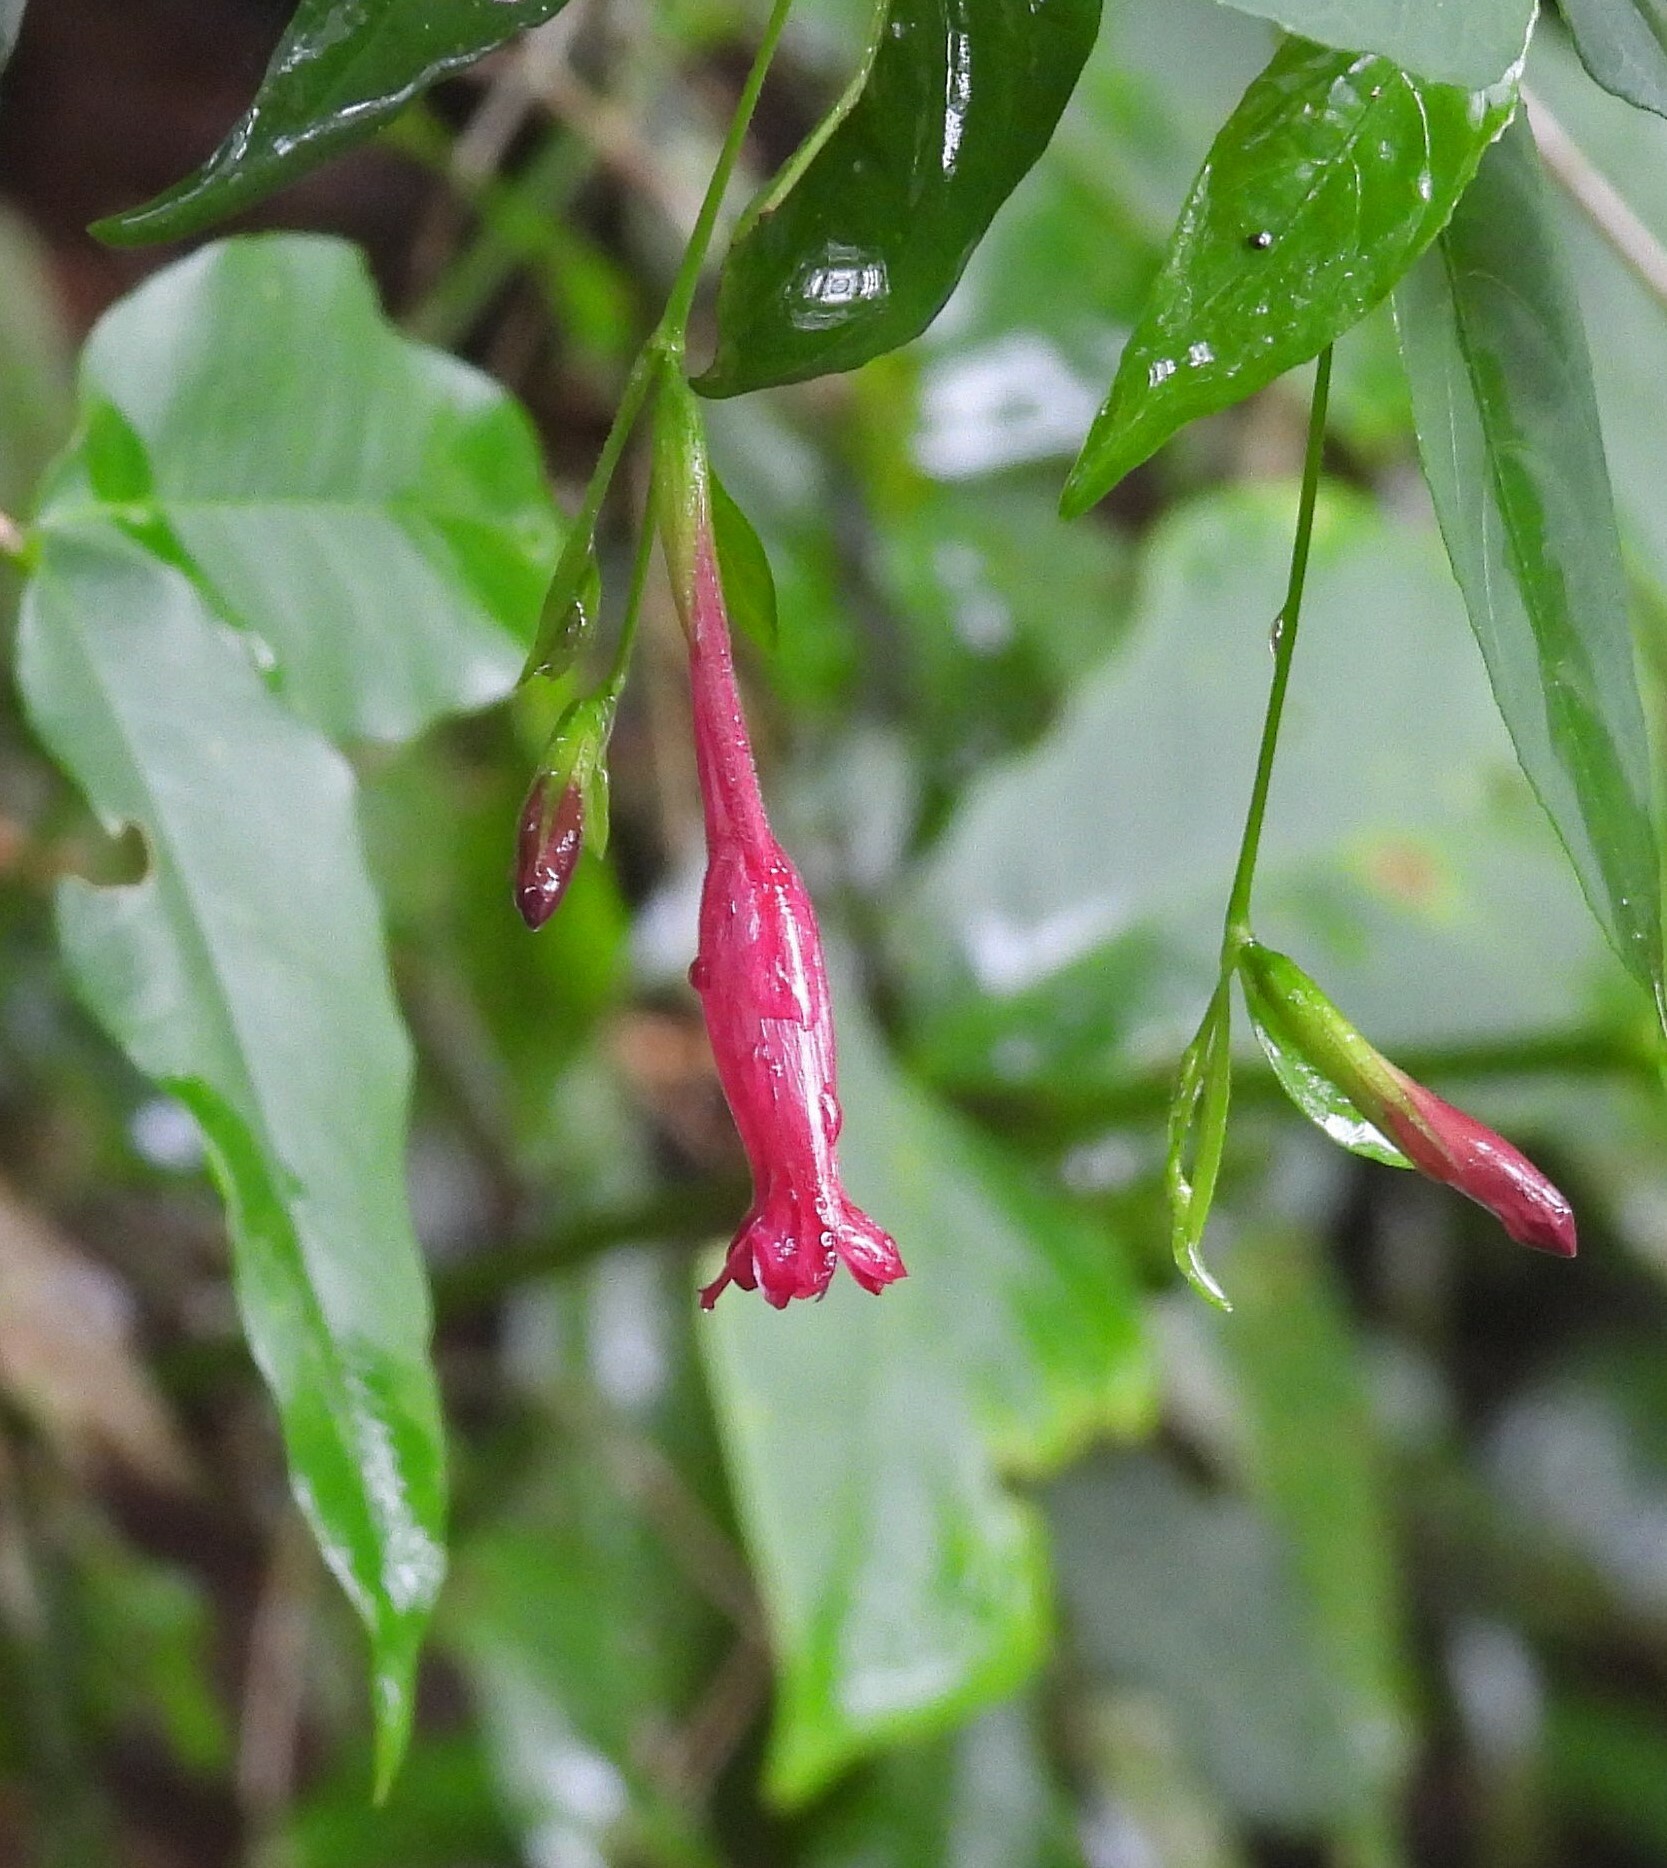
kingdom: Plantae
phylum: Tracheophyta
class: Magnoliopsida
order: Lamiales
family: Acanthaceae
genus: Ruellia
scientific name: Ruellia angustiflora
